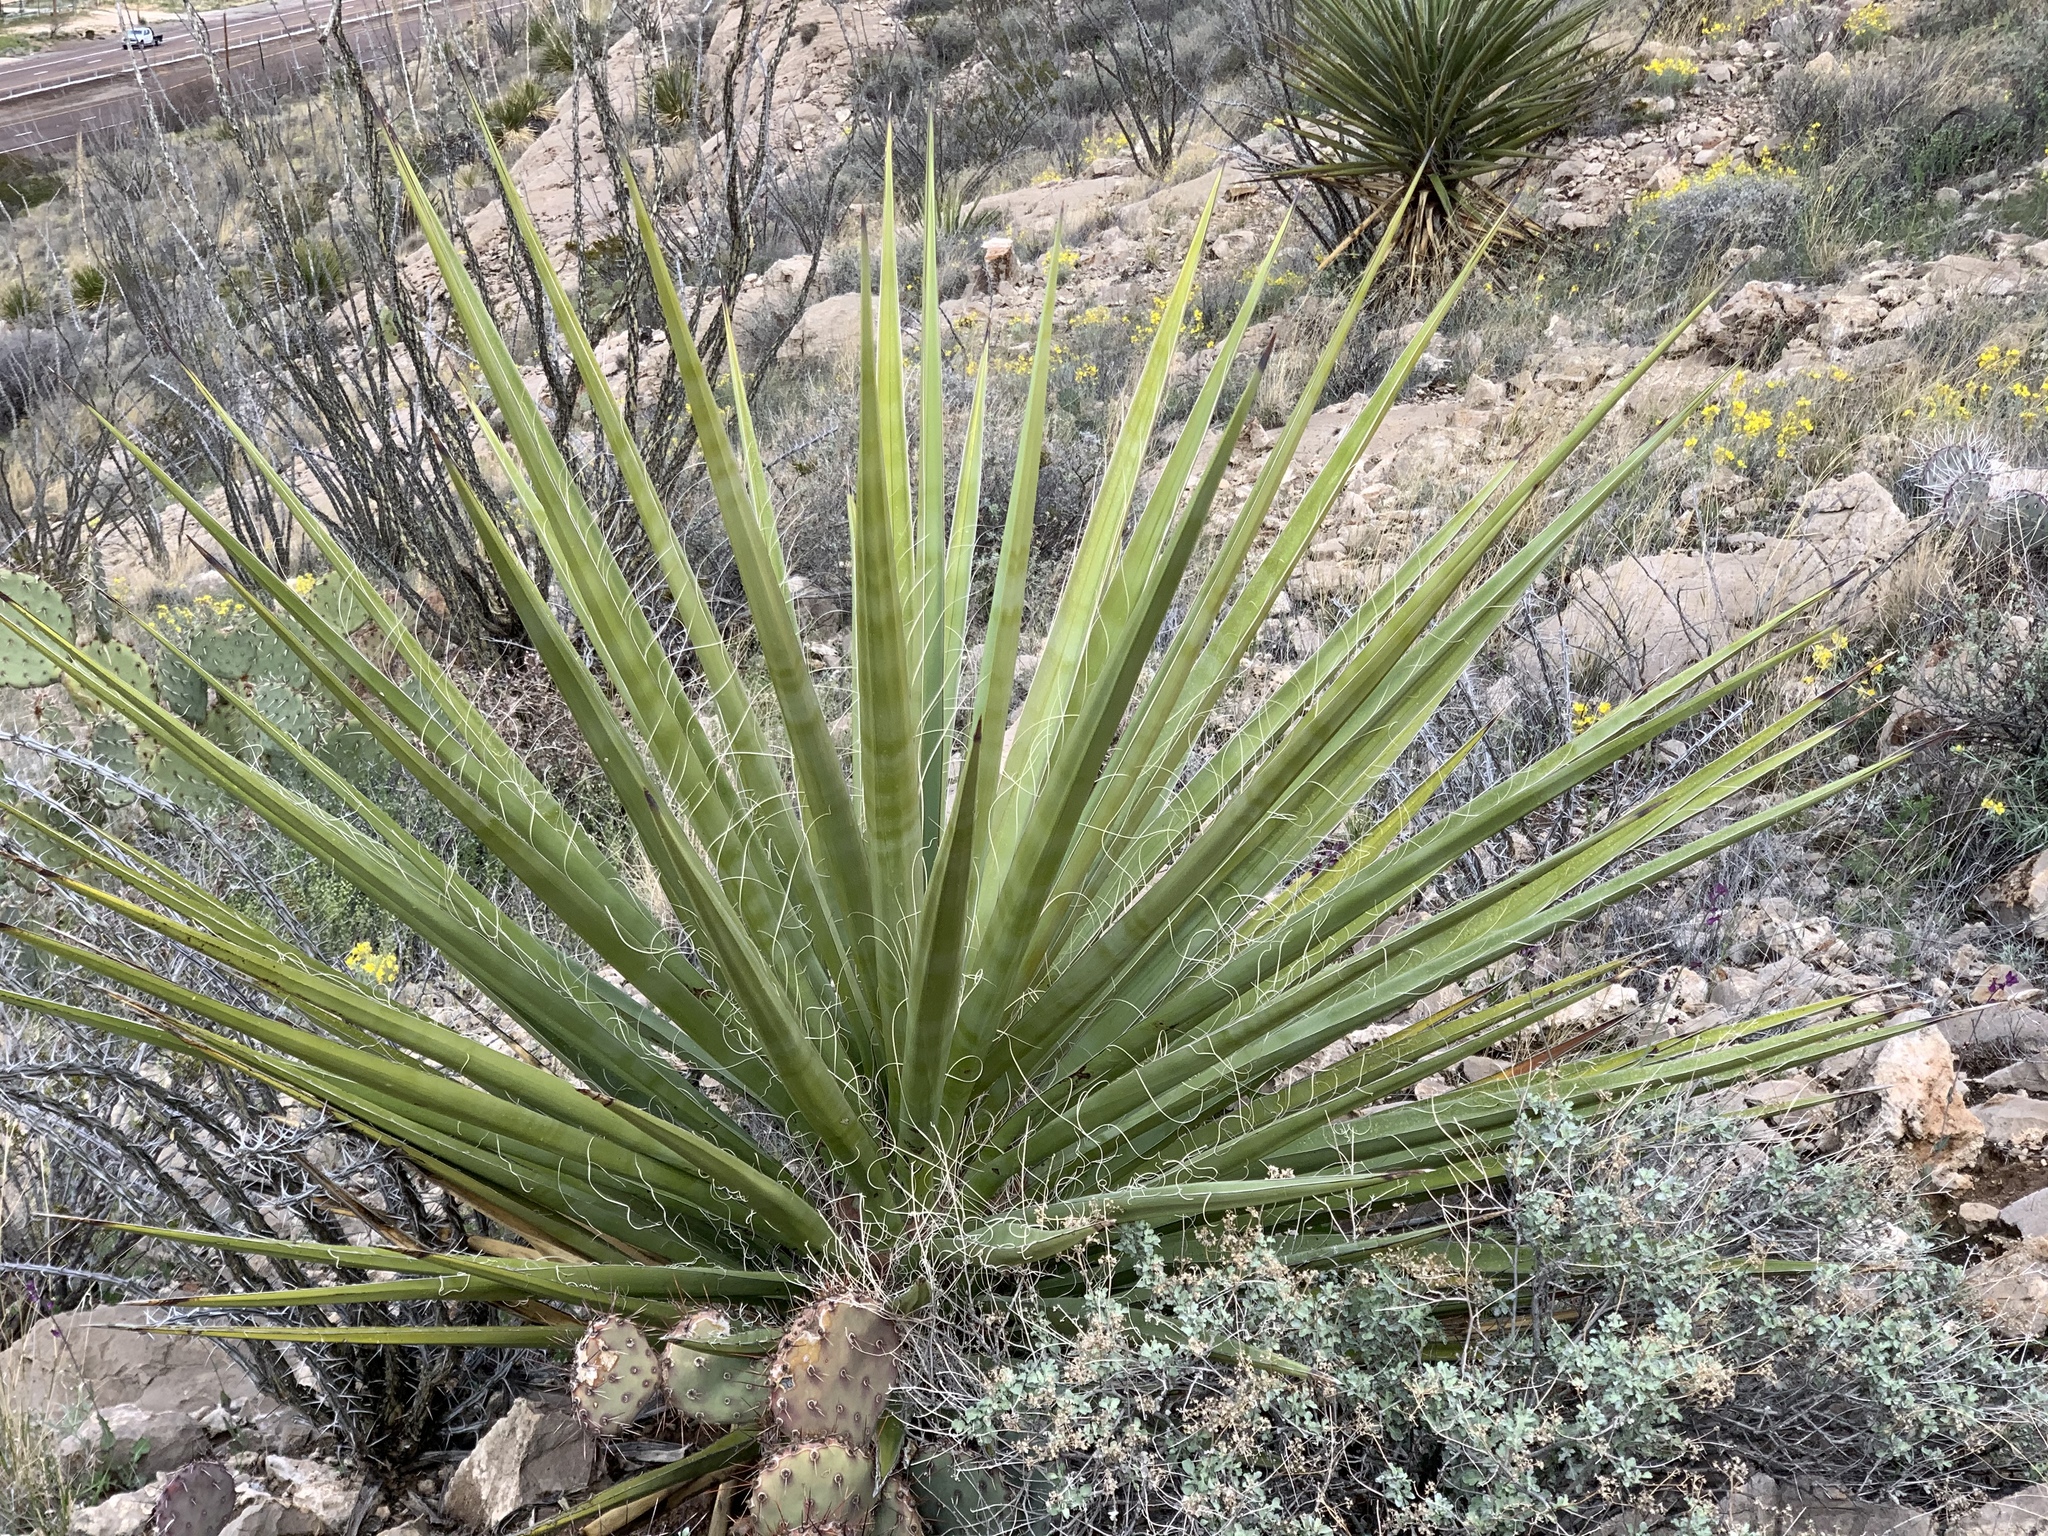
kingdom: Plantae
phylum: Tracheophyta
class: Liliopsida
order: Asparagales
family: Asparagaceae
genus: Yucca
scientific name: Yucca treculiana
